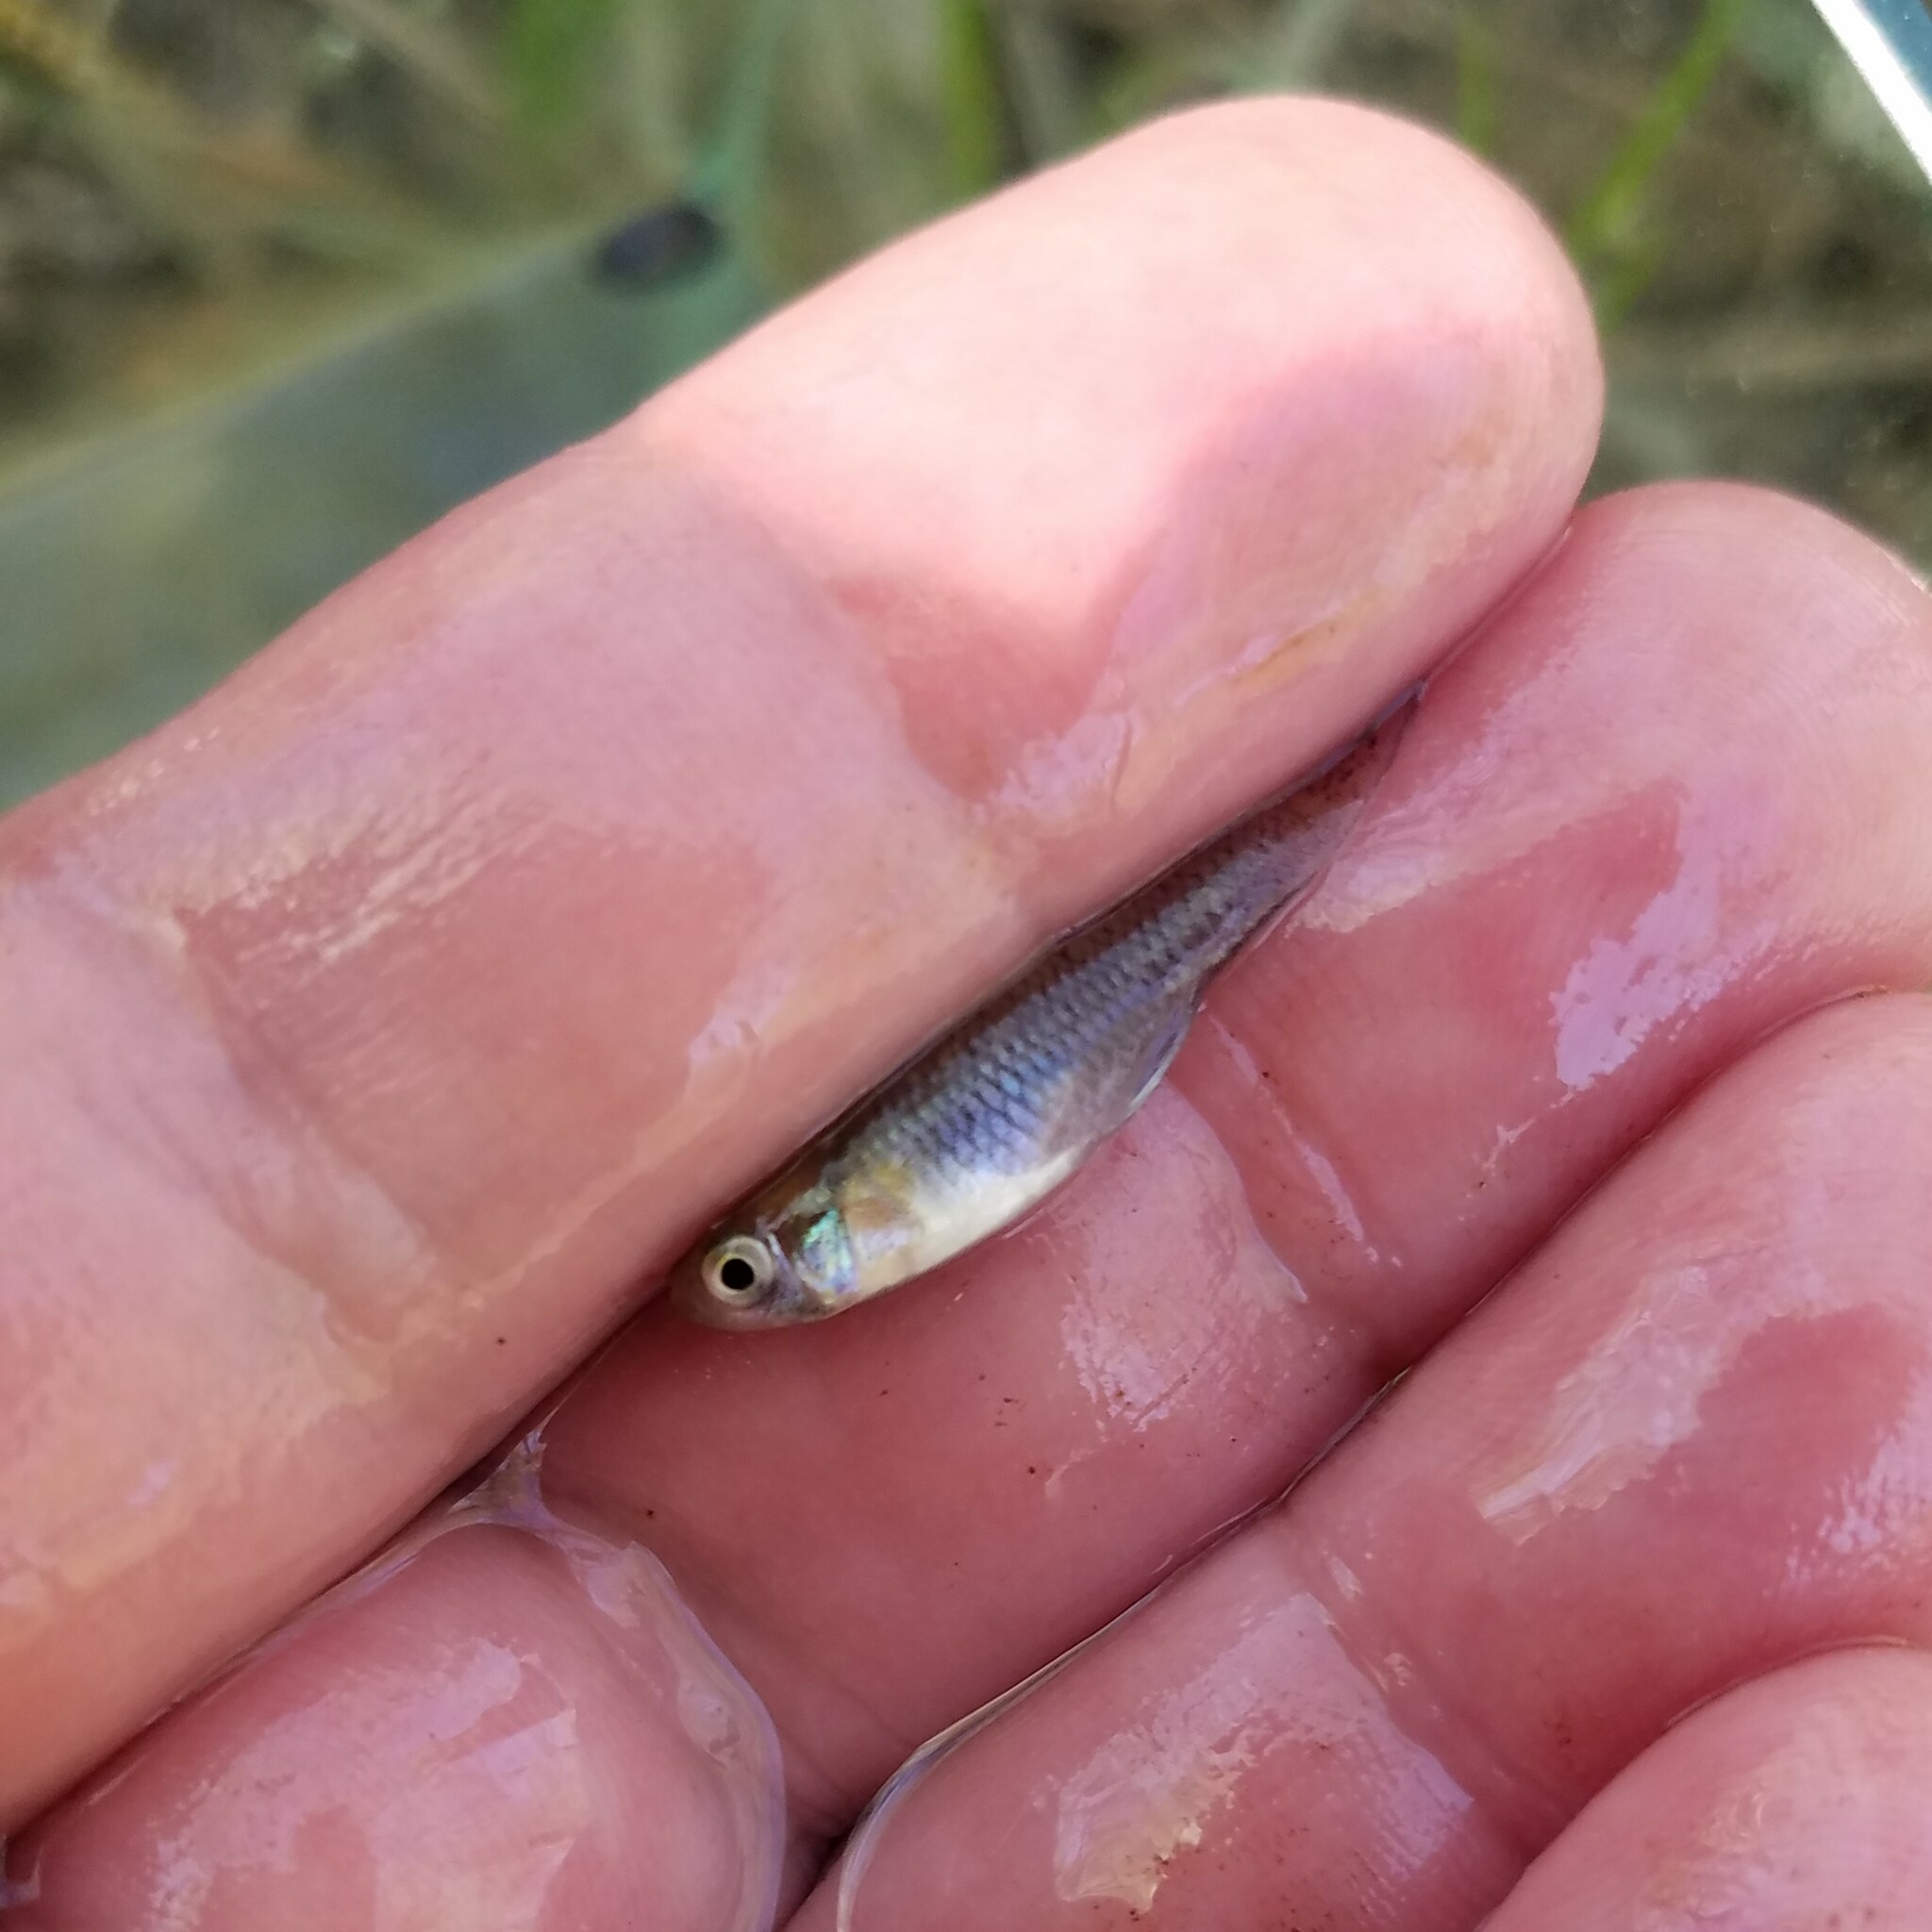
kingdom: Animalia
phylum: Chordata
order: Cyprinodontiformes
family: Poeciliidae
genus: Gambusia
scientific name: Gambusia holbrooki
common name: Eastern mosquitofish
